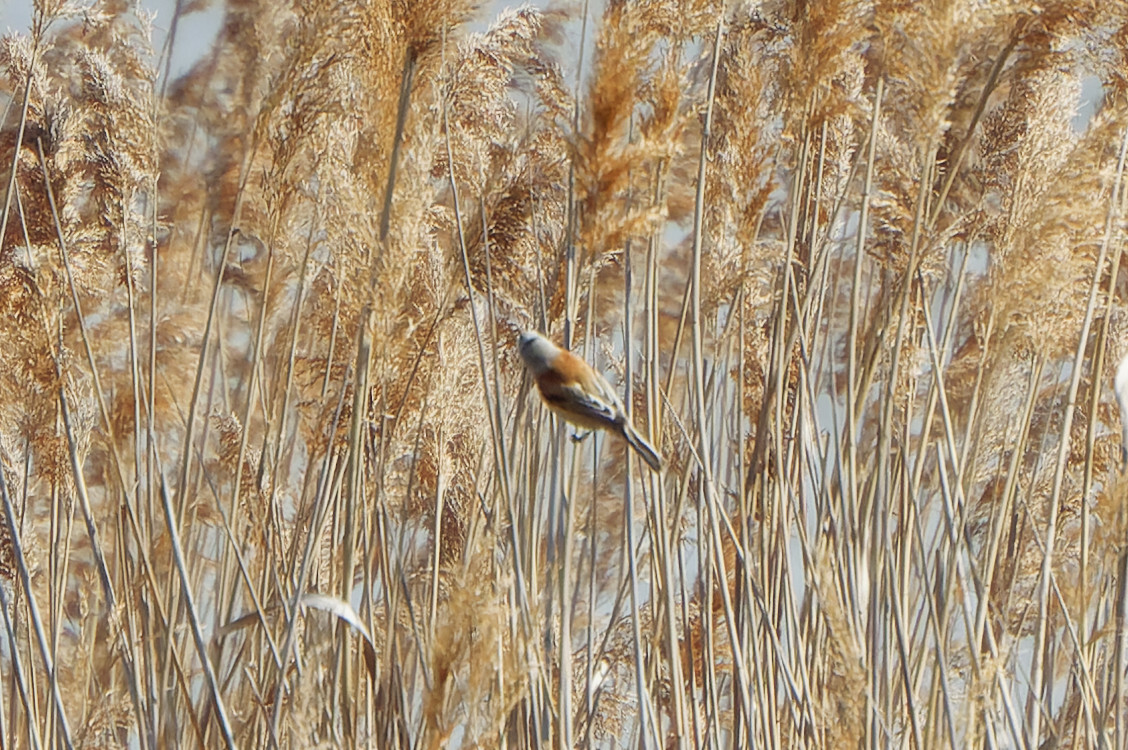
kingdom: Animalia
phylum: Chordata
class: Aves
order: Passeriformes
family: Remizidae
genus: Remiz
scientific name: Remiz pendulinus
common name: Eurasian penduline tit
